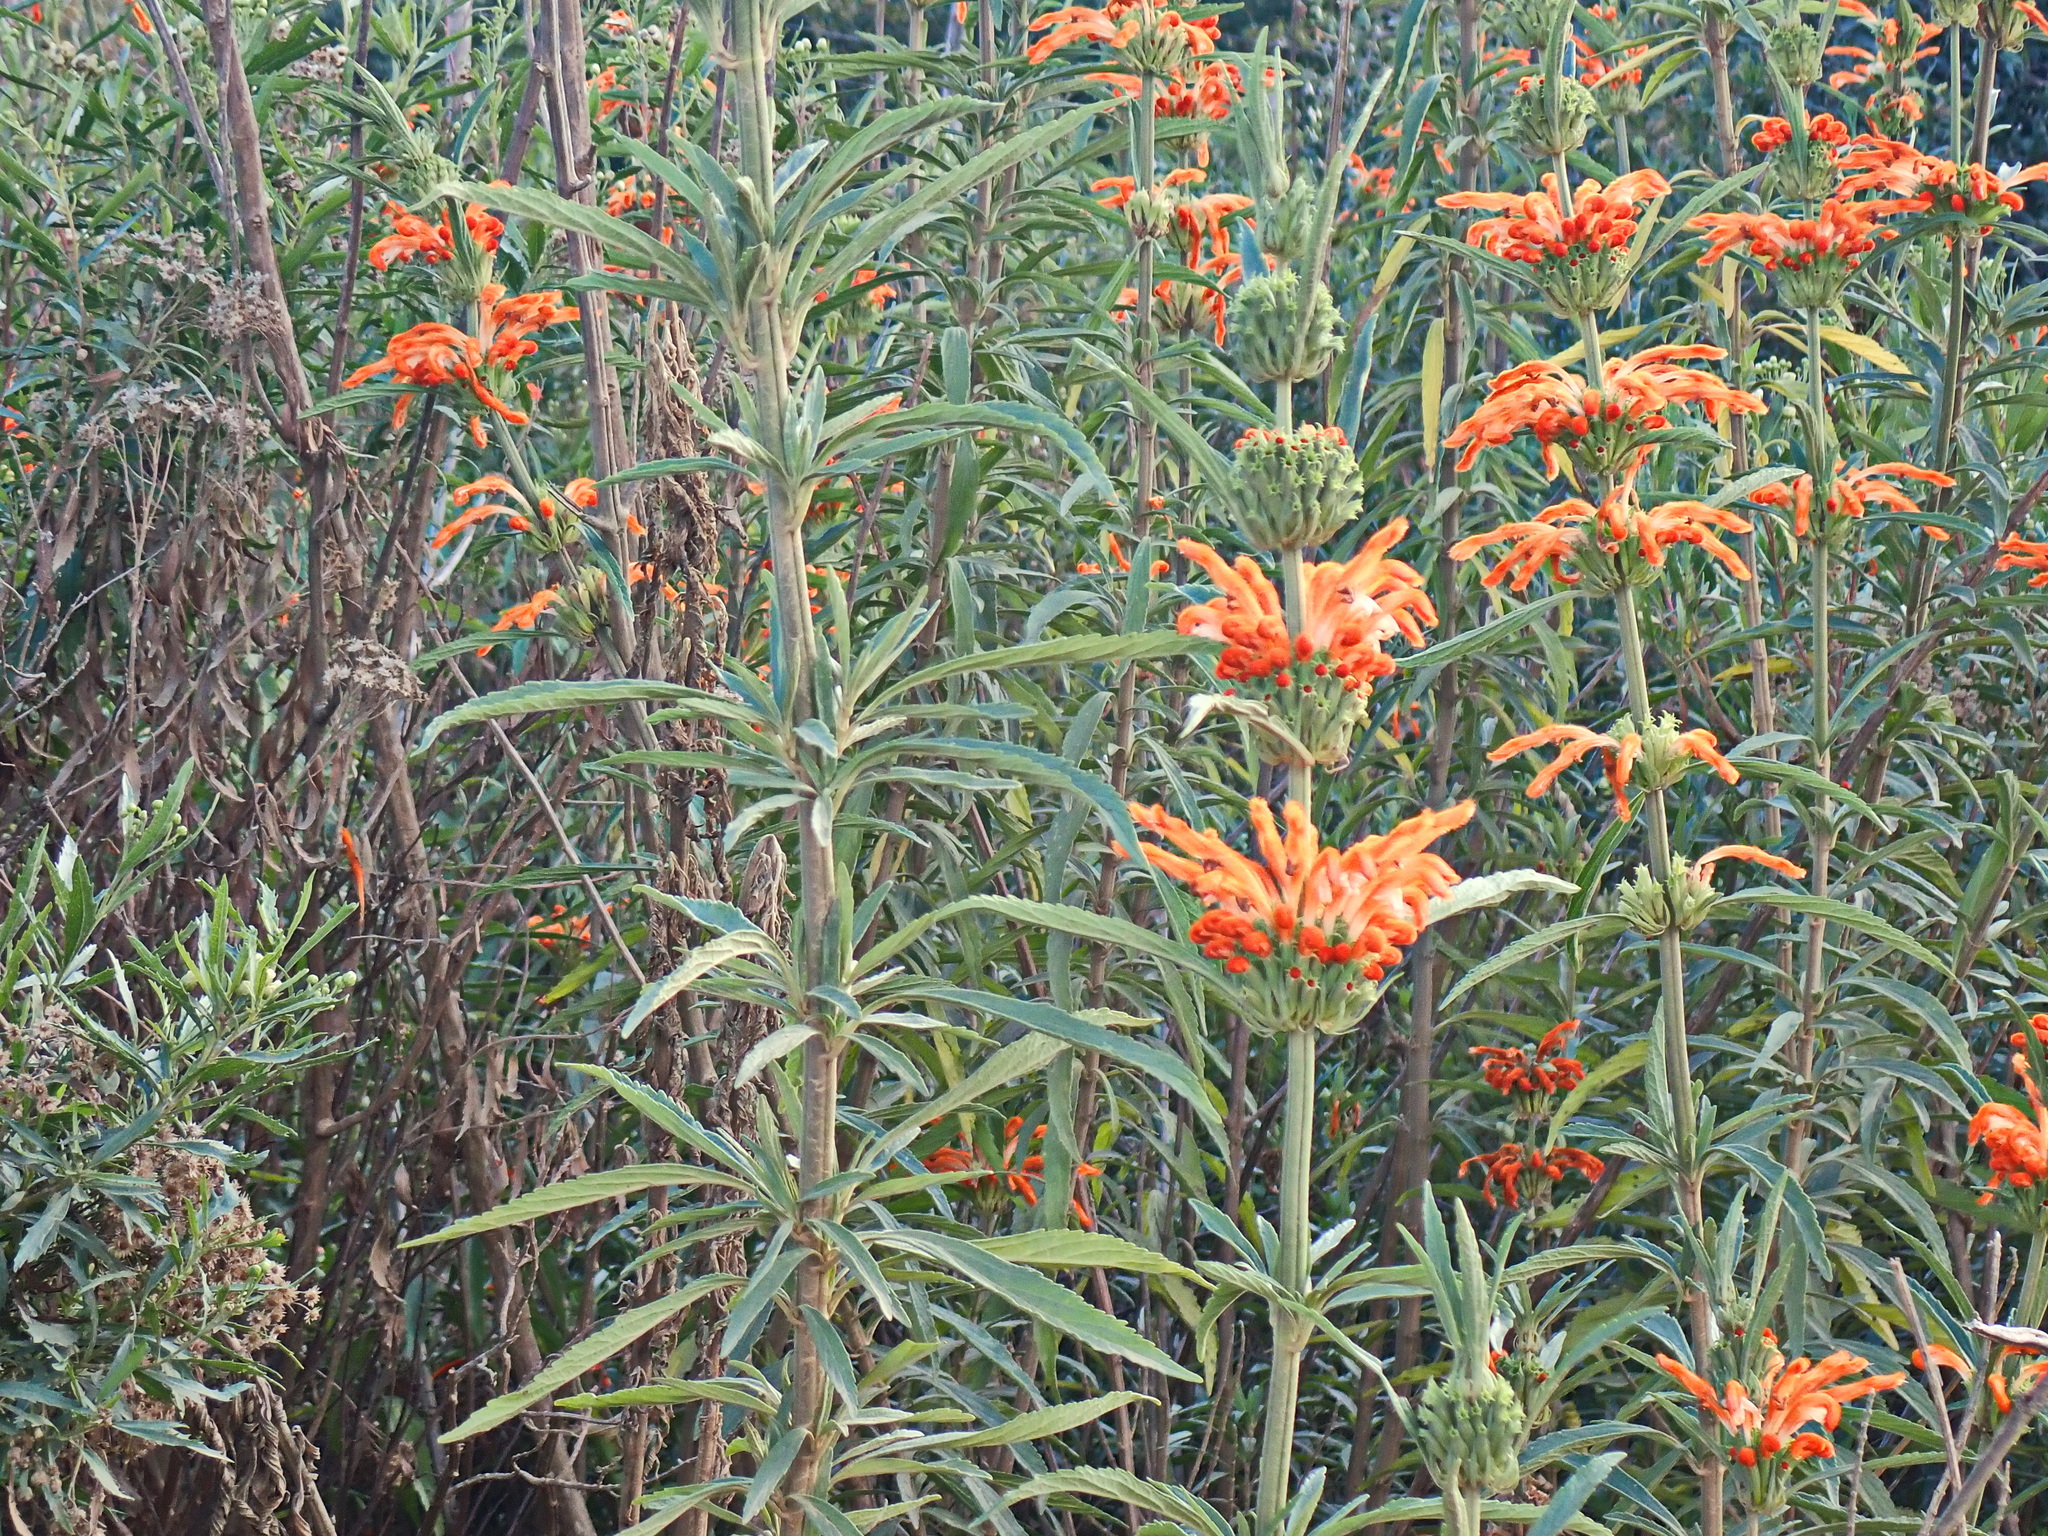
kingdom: Plantae
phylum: Tracheophyta
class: Magnoliopsida
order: Lamiales
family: Lamiaceae
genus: Leonotis
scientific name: Leonotis leonurus
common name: Lion's ear
